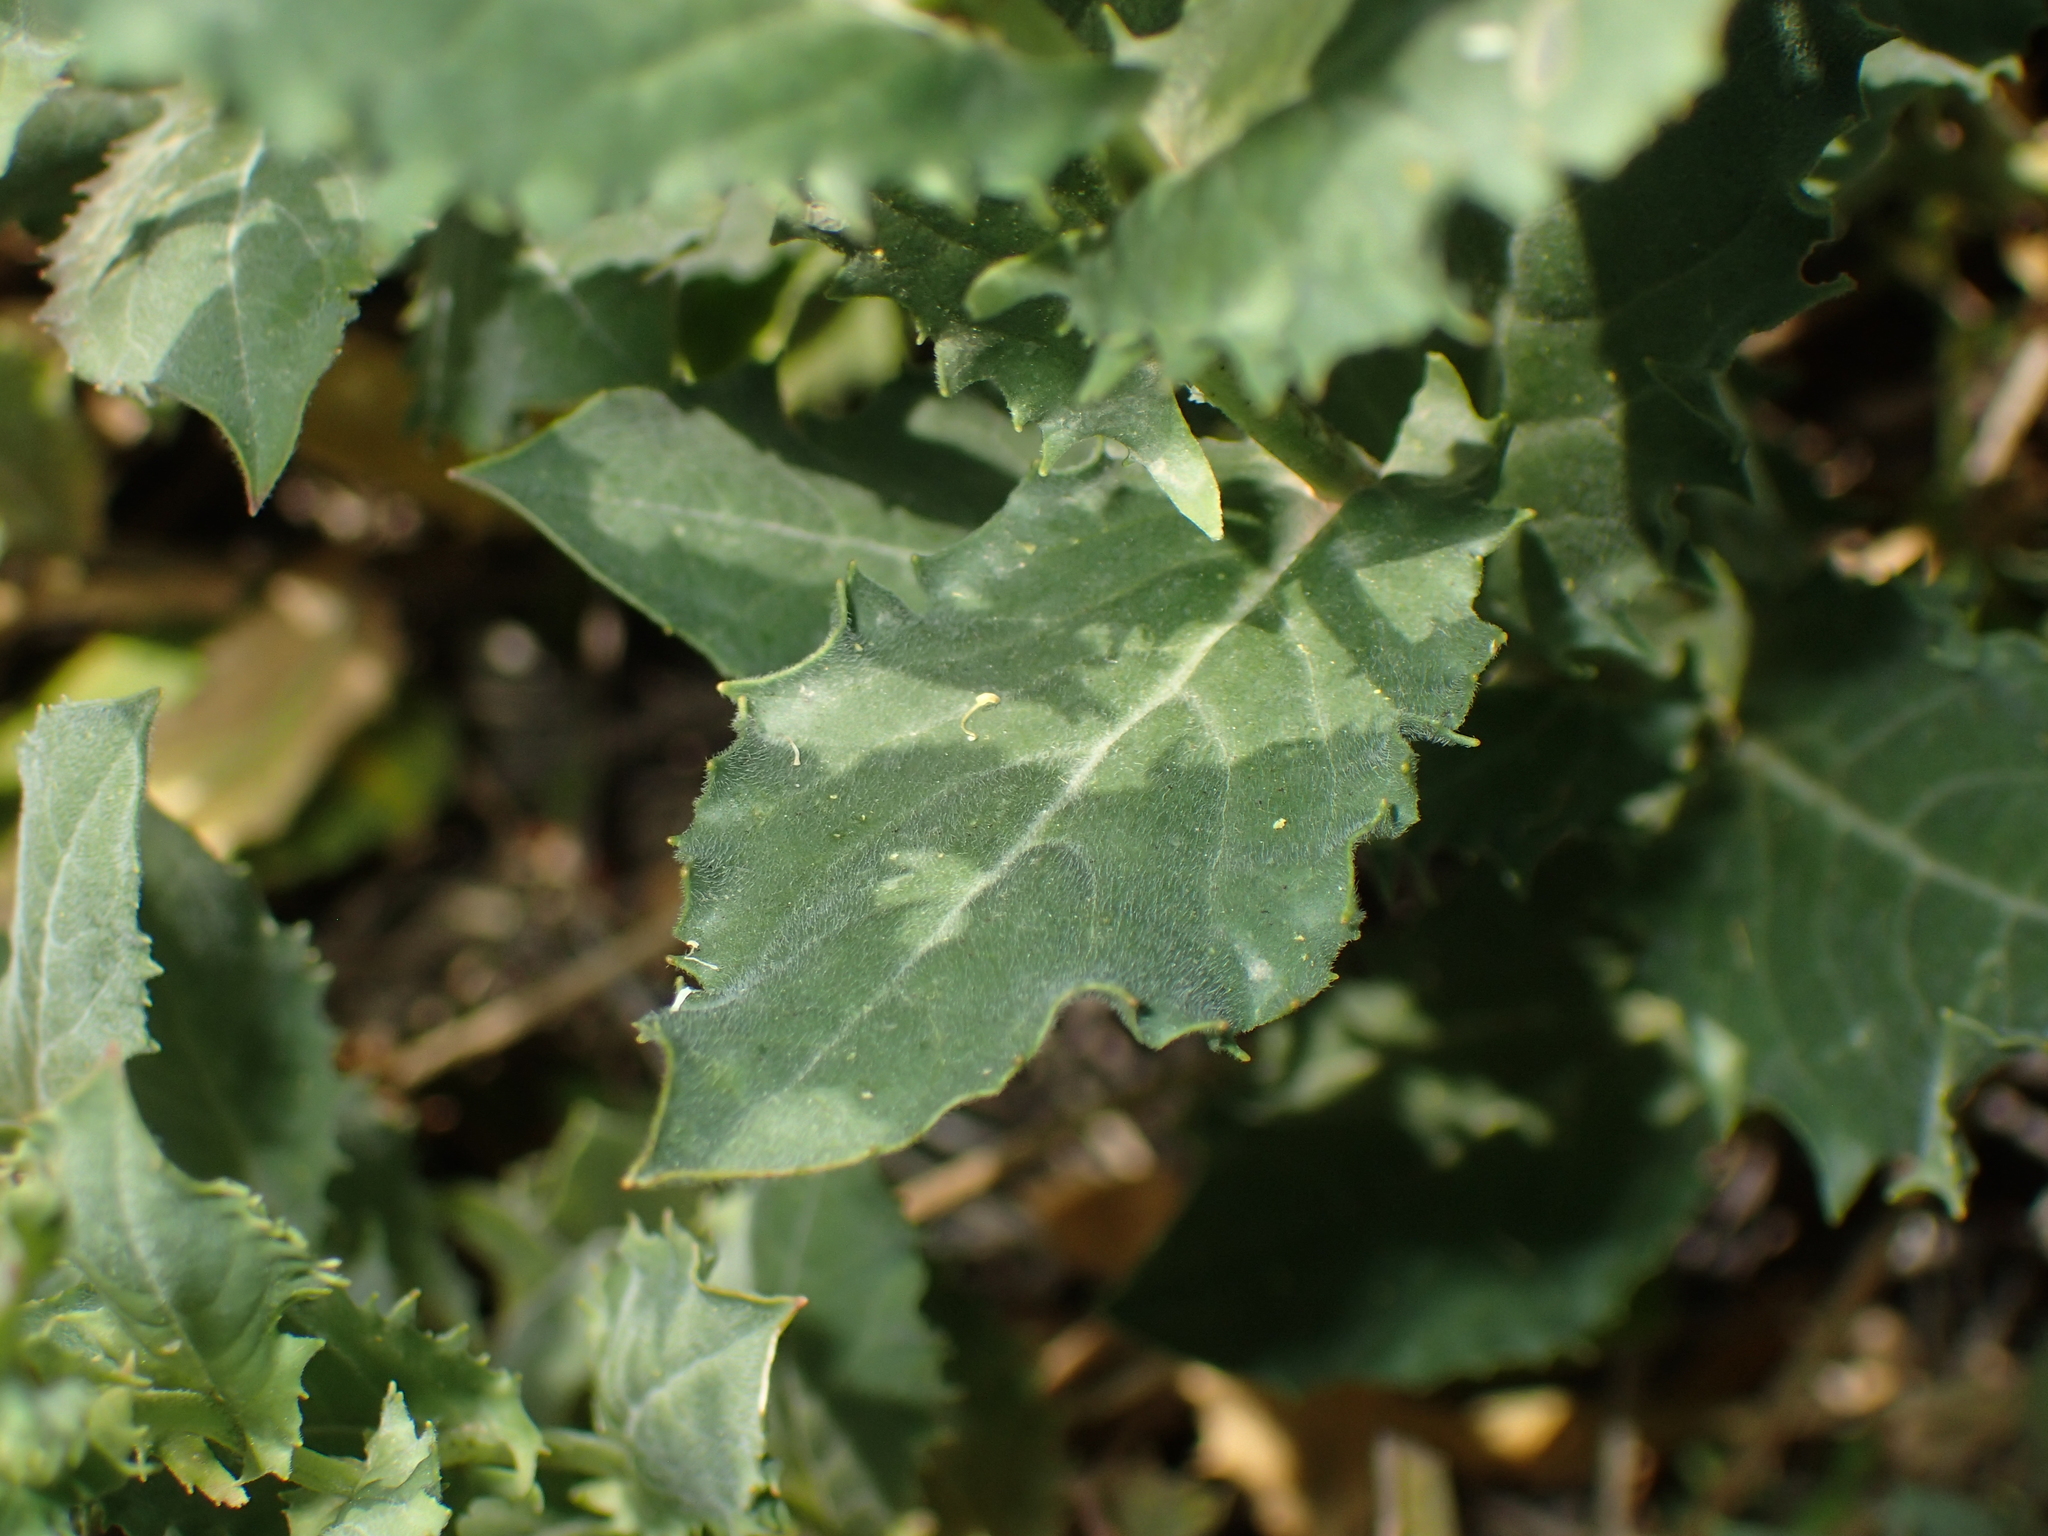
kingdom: Plantae
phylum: Tracheophyta
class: Magnoliopsida
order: Brassicales
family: Brassicaceae
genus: Lepidium
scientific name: Lepidium draba
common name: Hoary cress
